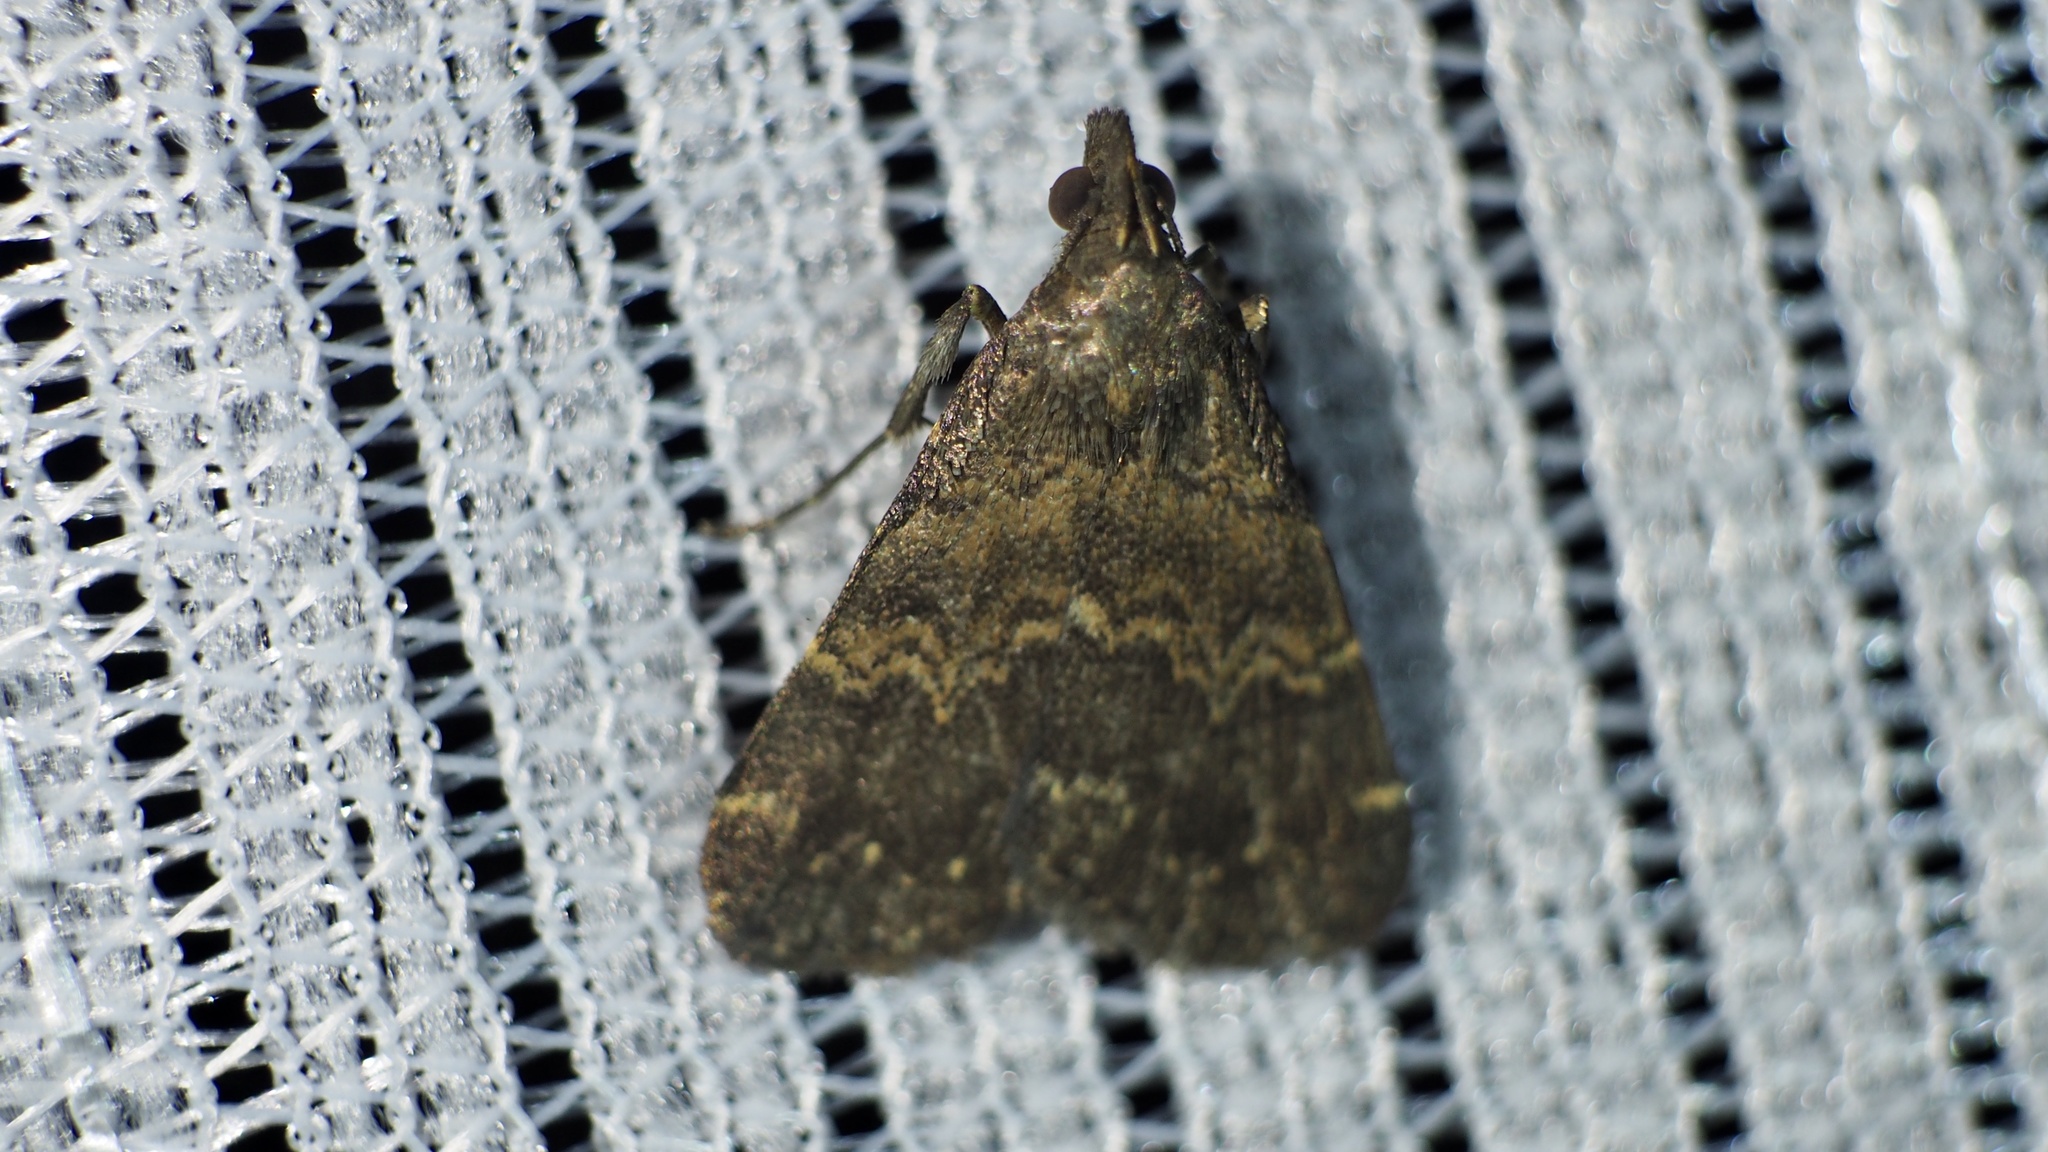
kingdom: Animalia
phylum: Arthropoda
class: Insecta
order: Lepidoptera
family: Erebidae
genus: Hydrillodes
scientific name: Hydrillodes morosa
